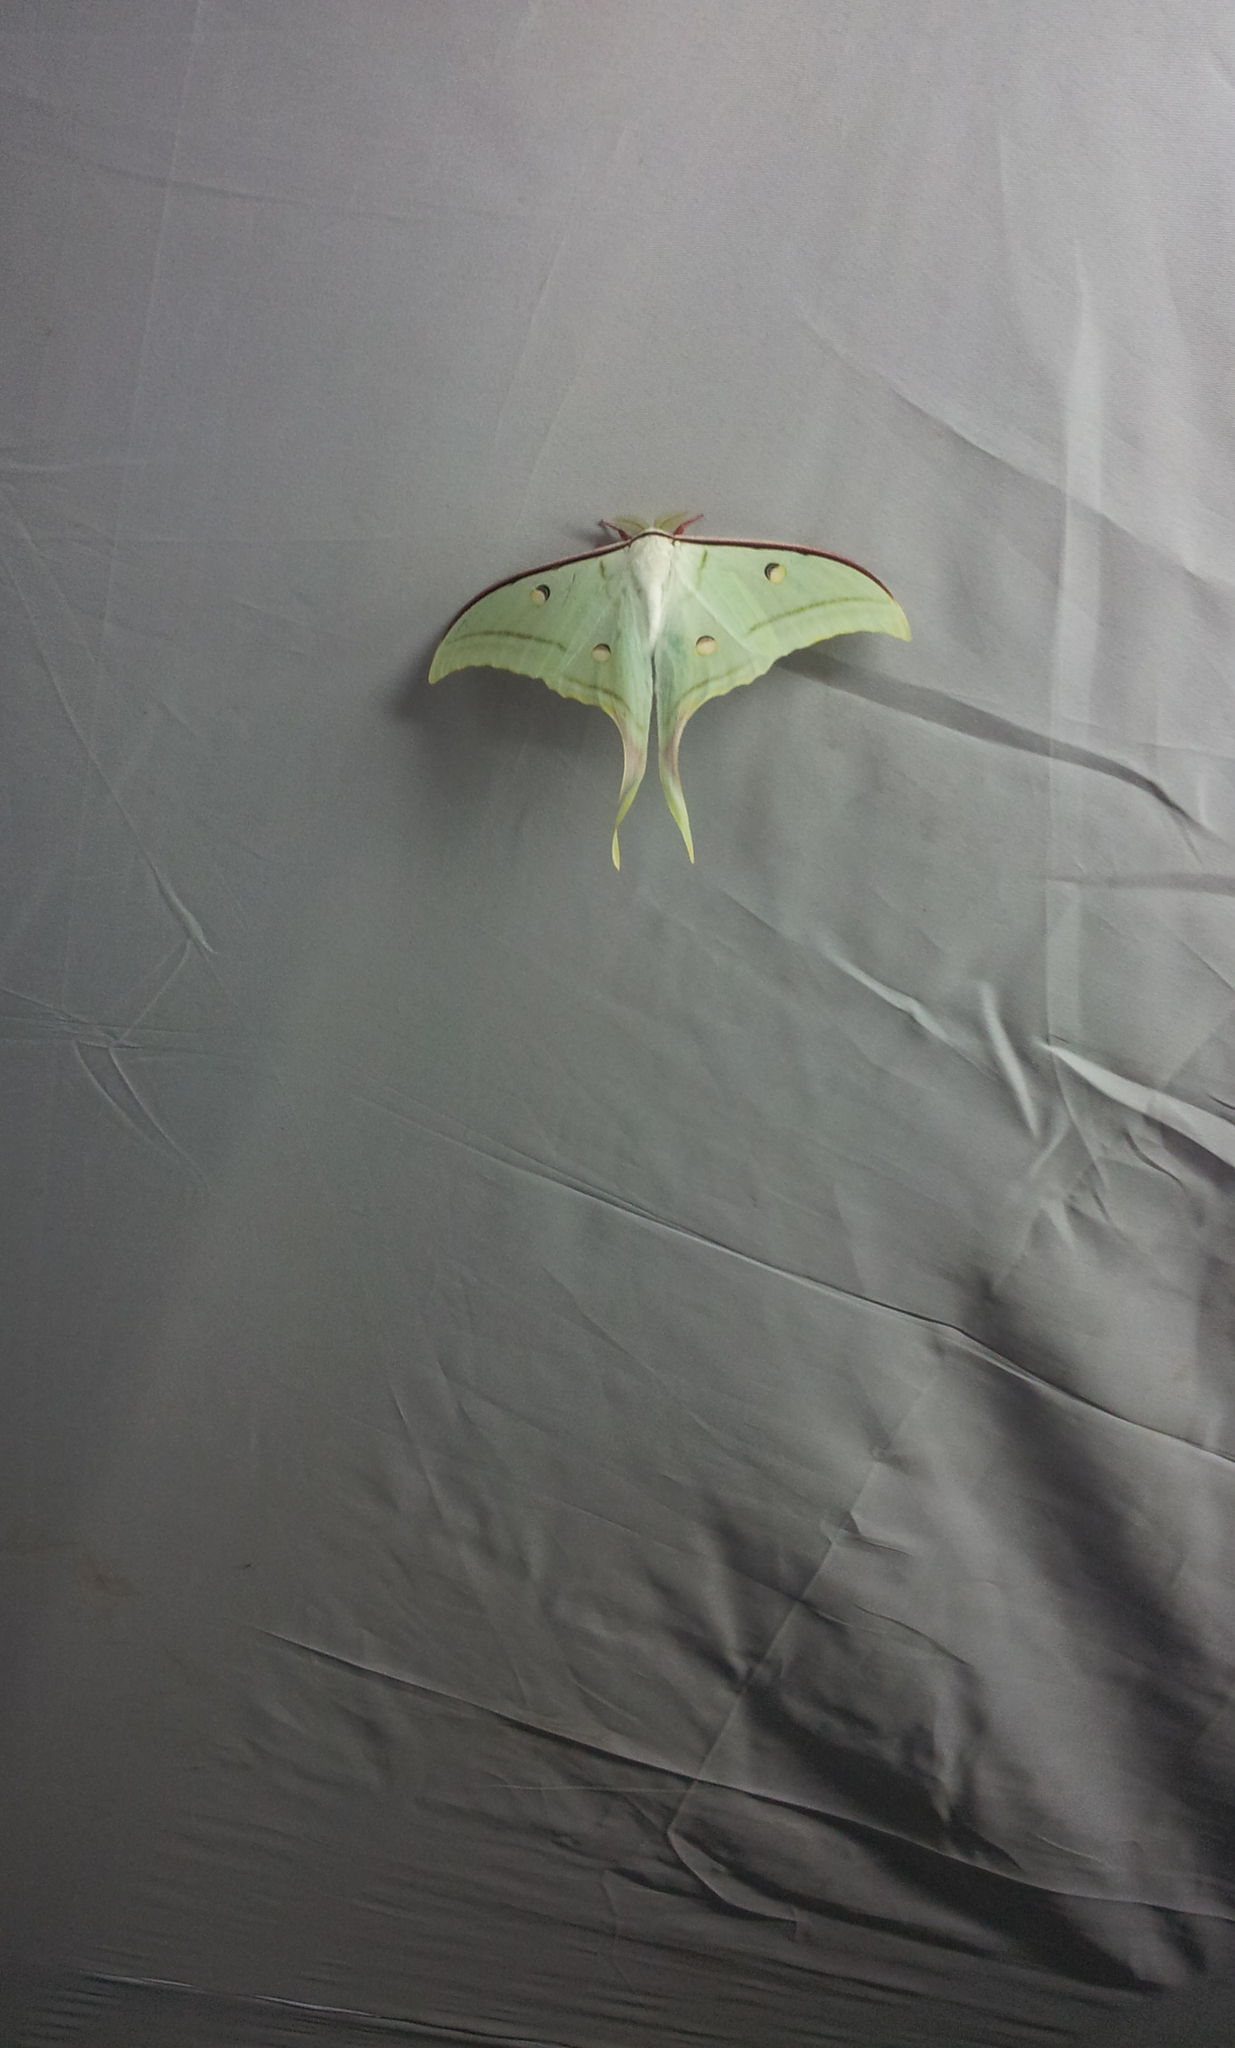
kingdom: Animalia
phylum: Arthropoda
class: Insecta
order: Lepidoptera
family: Saturniidae
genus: Actias
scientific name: Actias selene
